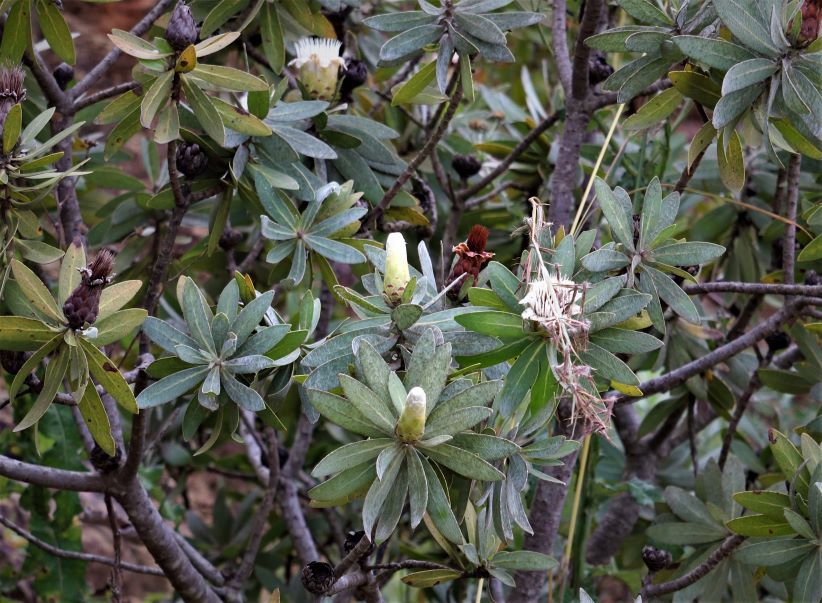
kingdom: Plantae
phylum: Tracheophyta
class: Magnoliopsida
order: Proteales
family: Proteaceae
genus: Protea
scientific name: Protea subvestita
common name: Lip-flower sugarbush
